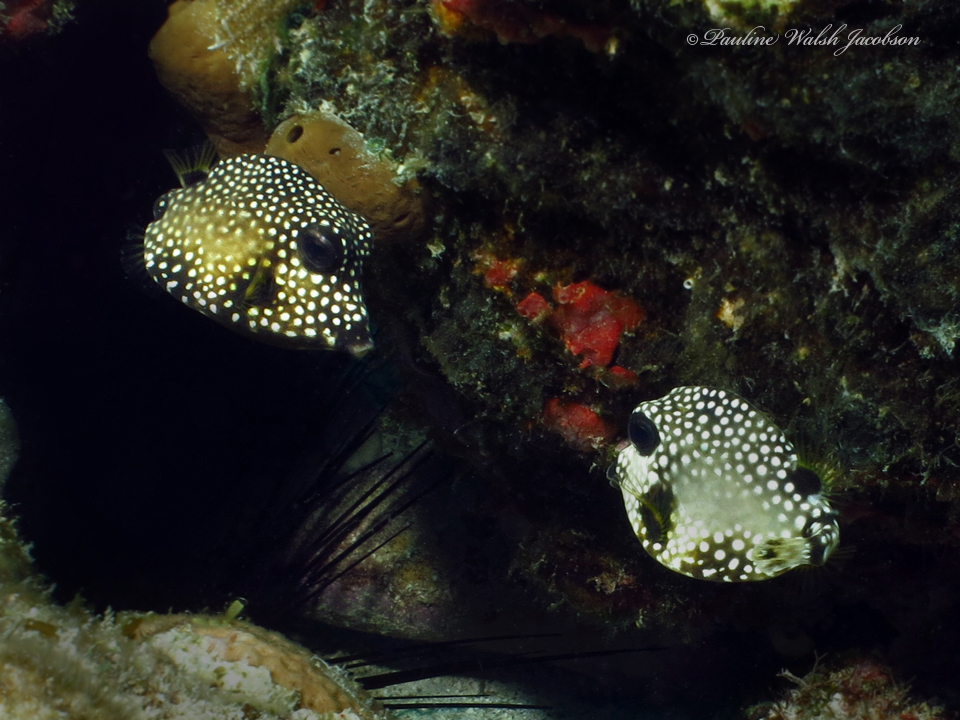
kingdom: Animalia
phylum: Chordata
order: Tetraodontiformes
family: Ostraciidae
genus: Lactophrys
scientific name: Lactophrys triqueter
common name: Smooth trunkfish
